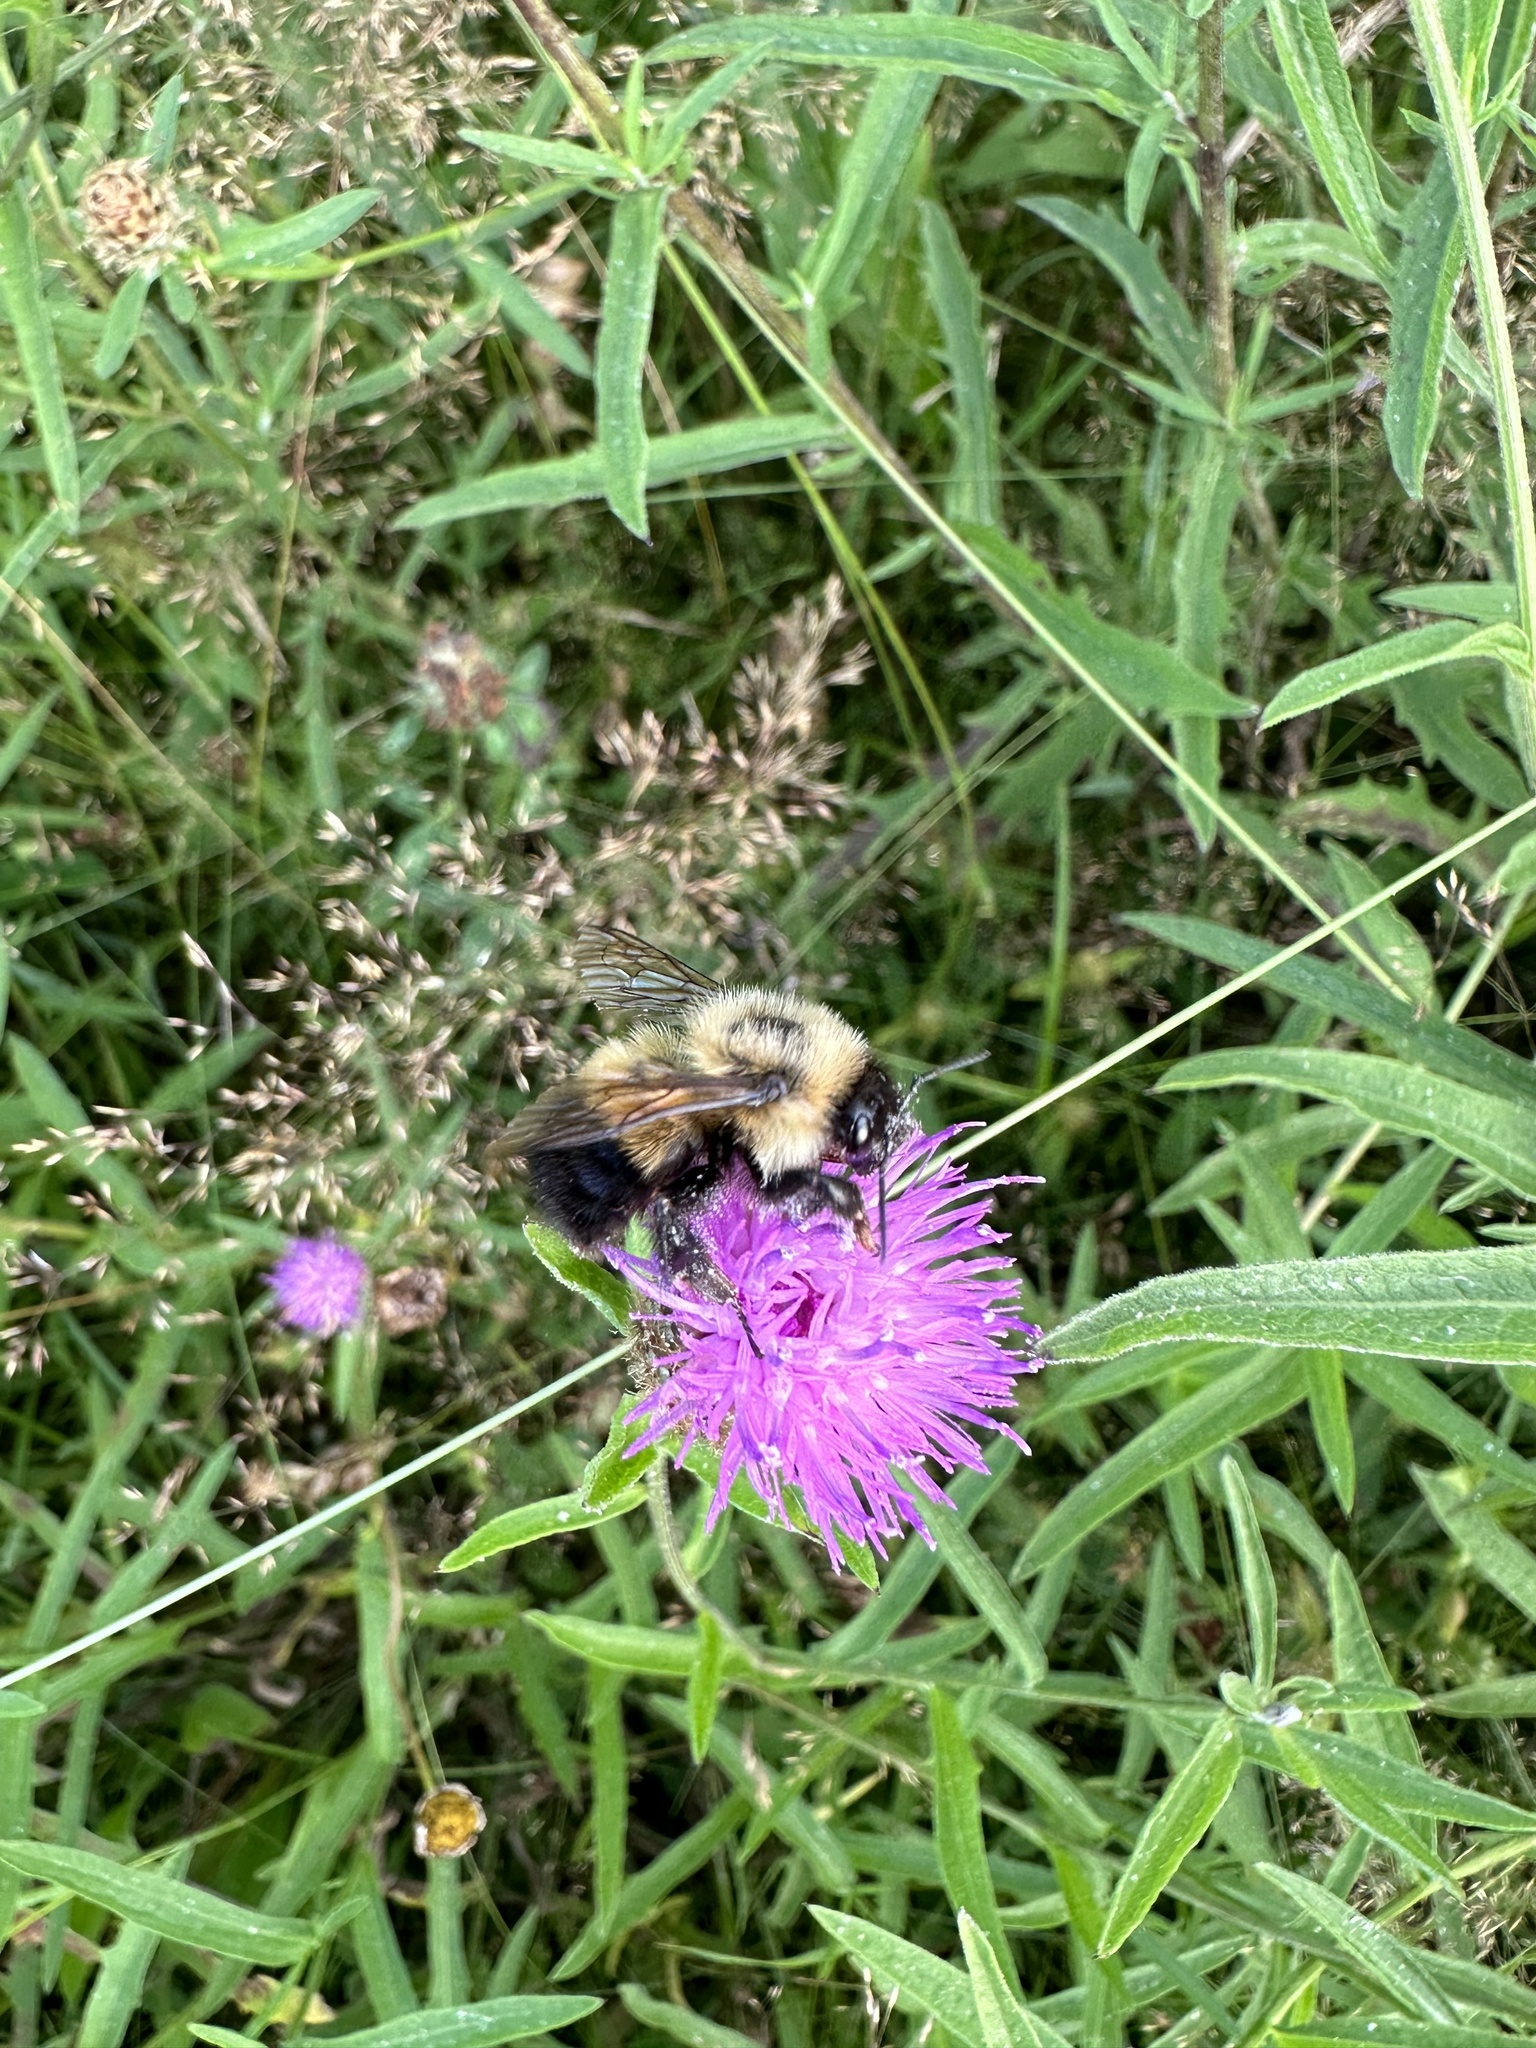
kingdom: Animalia
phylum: Arthropoda
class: Insecta
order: Hymenoptera
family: Apidae
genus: Pyrobombus
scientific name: Pyrobombus
